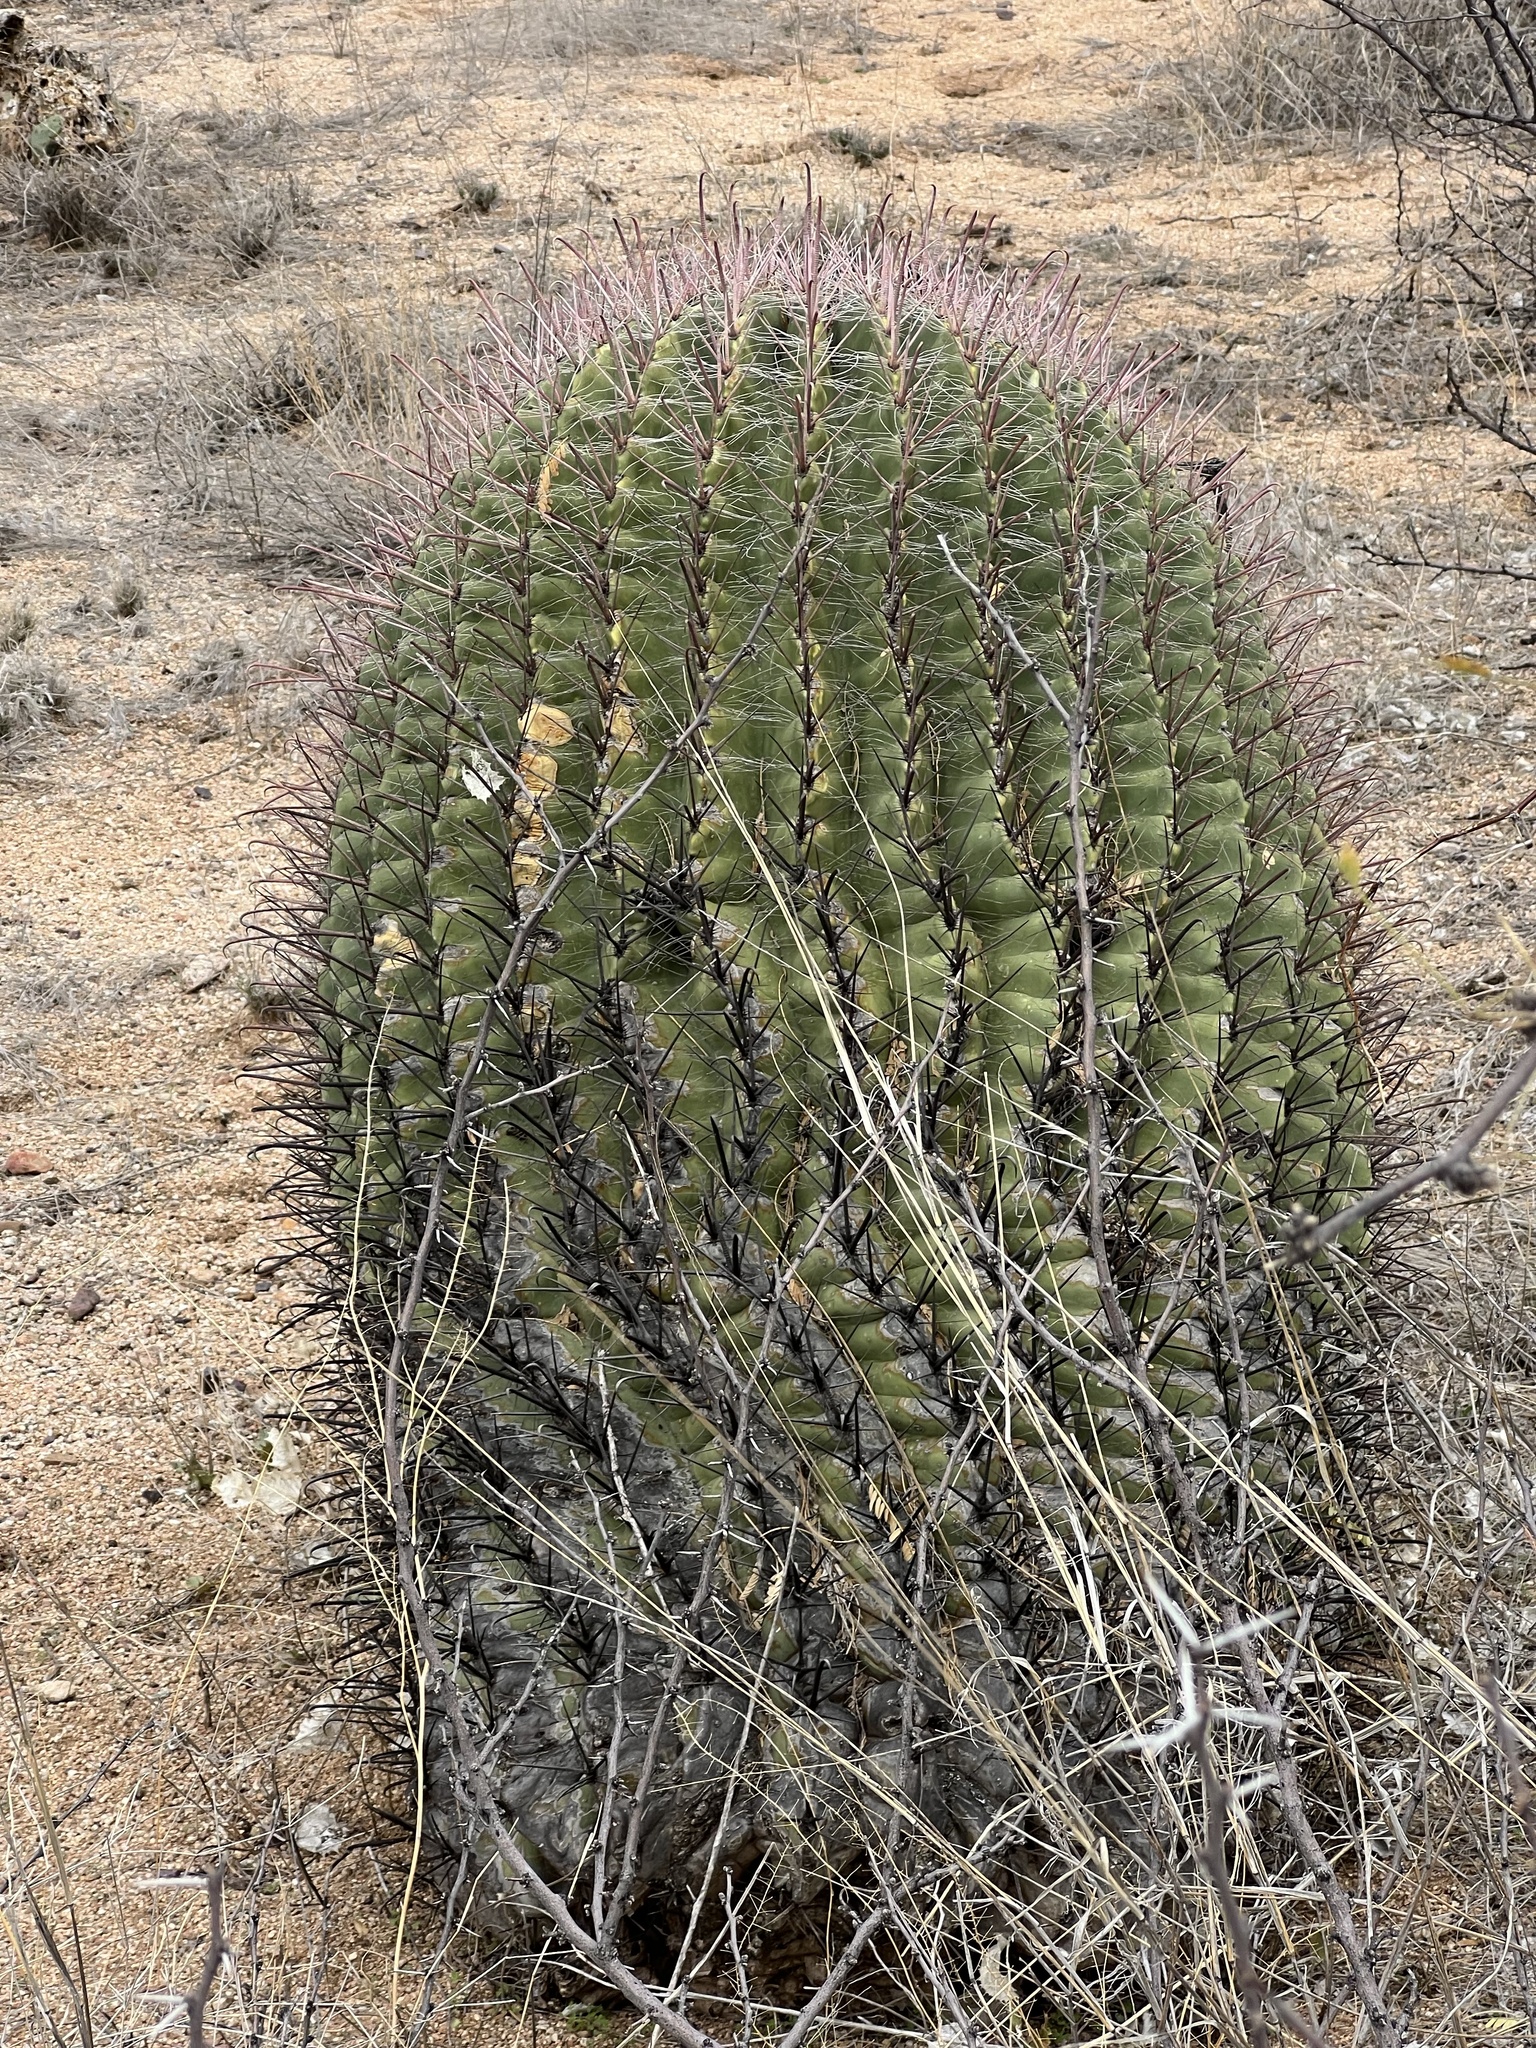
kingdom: Plantae
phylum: Tracheophyta
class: Magnoliopsida
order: Caryophyllales
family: Cactaceae
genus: Ferocactus
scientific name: Ferocactus wislizeni
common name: Candy barrel cactus
